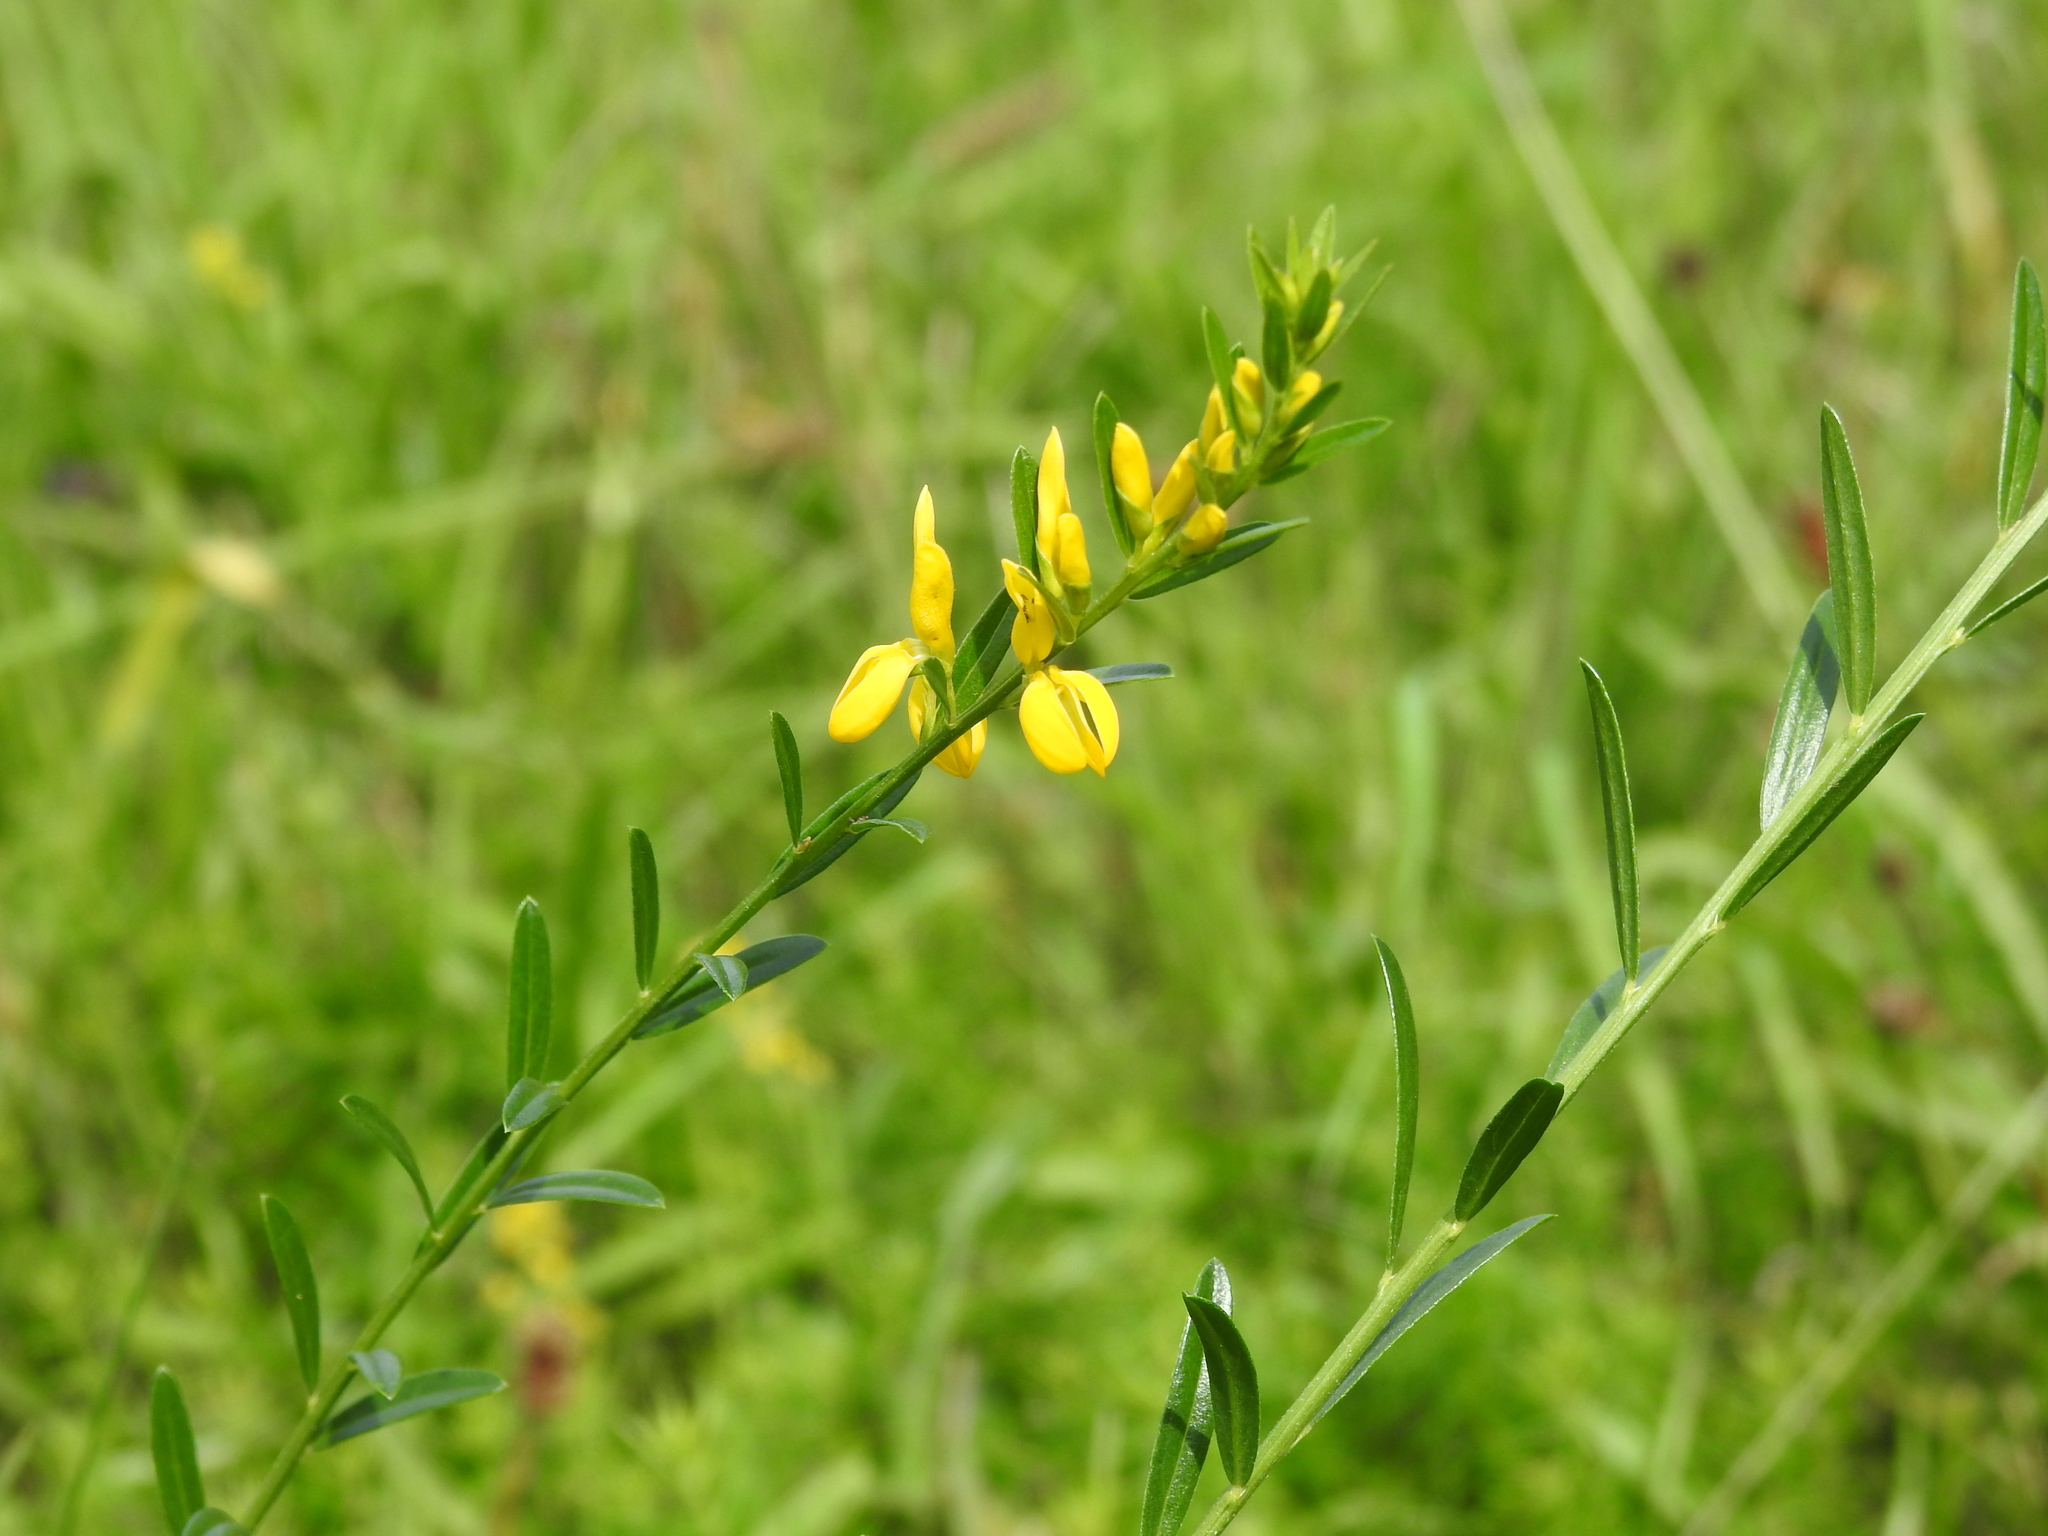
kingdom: Plantae
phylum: Tracheophyta
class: Magnoliopsida
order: Fabales
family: Fabaceae
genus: Genista
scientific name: Genista tinctoria
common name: Dyer's greenweed
